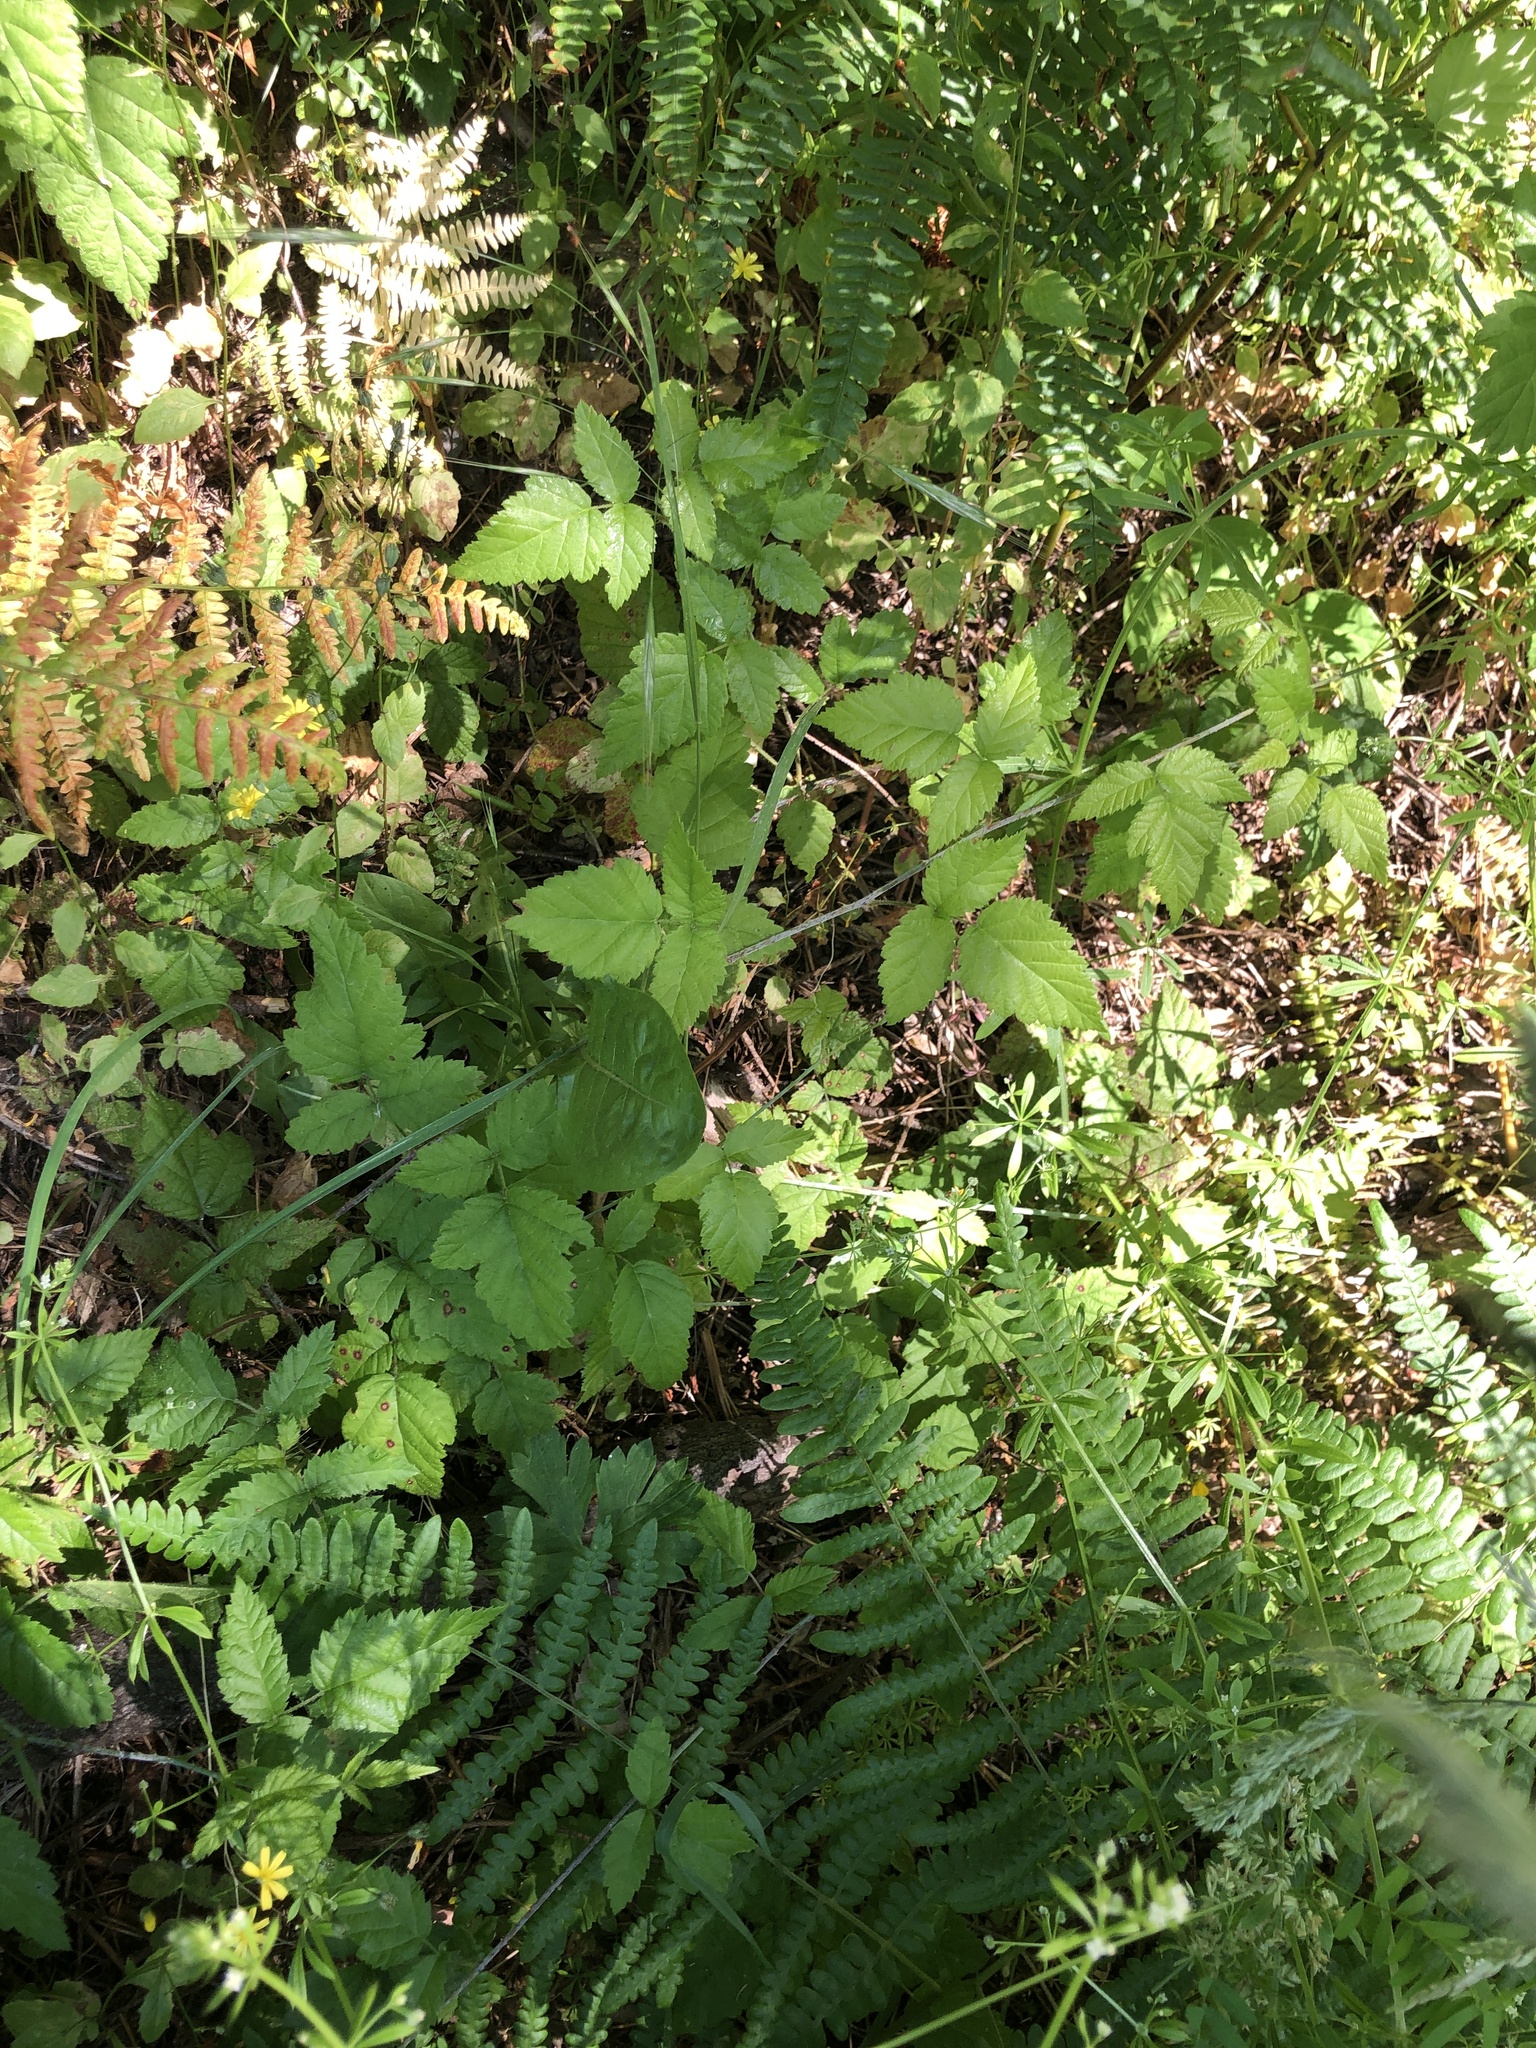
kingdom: Plantae
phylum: Tracheophyta
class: Magnoliopsida
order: Rosales
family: Rosaceae
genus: Rubus
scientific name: Rubus ursinus
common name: Pacific blackberry
